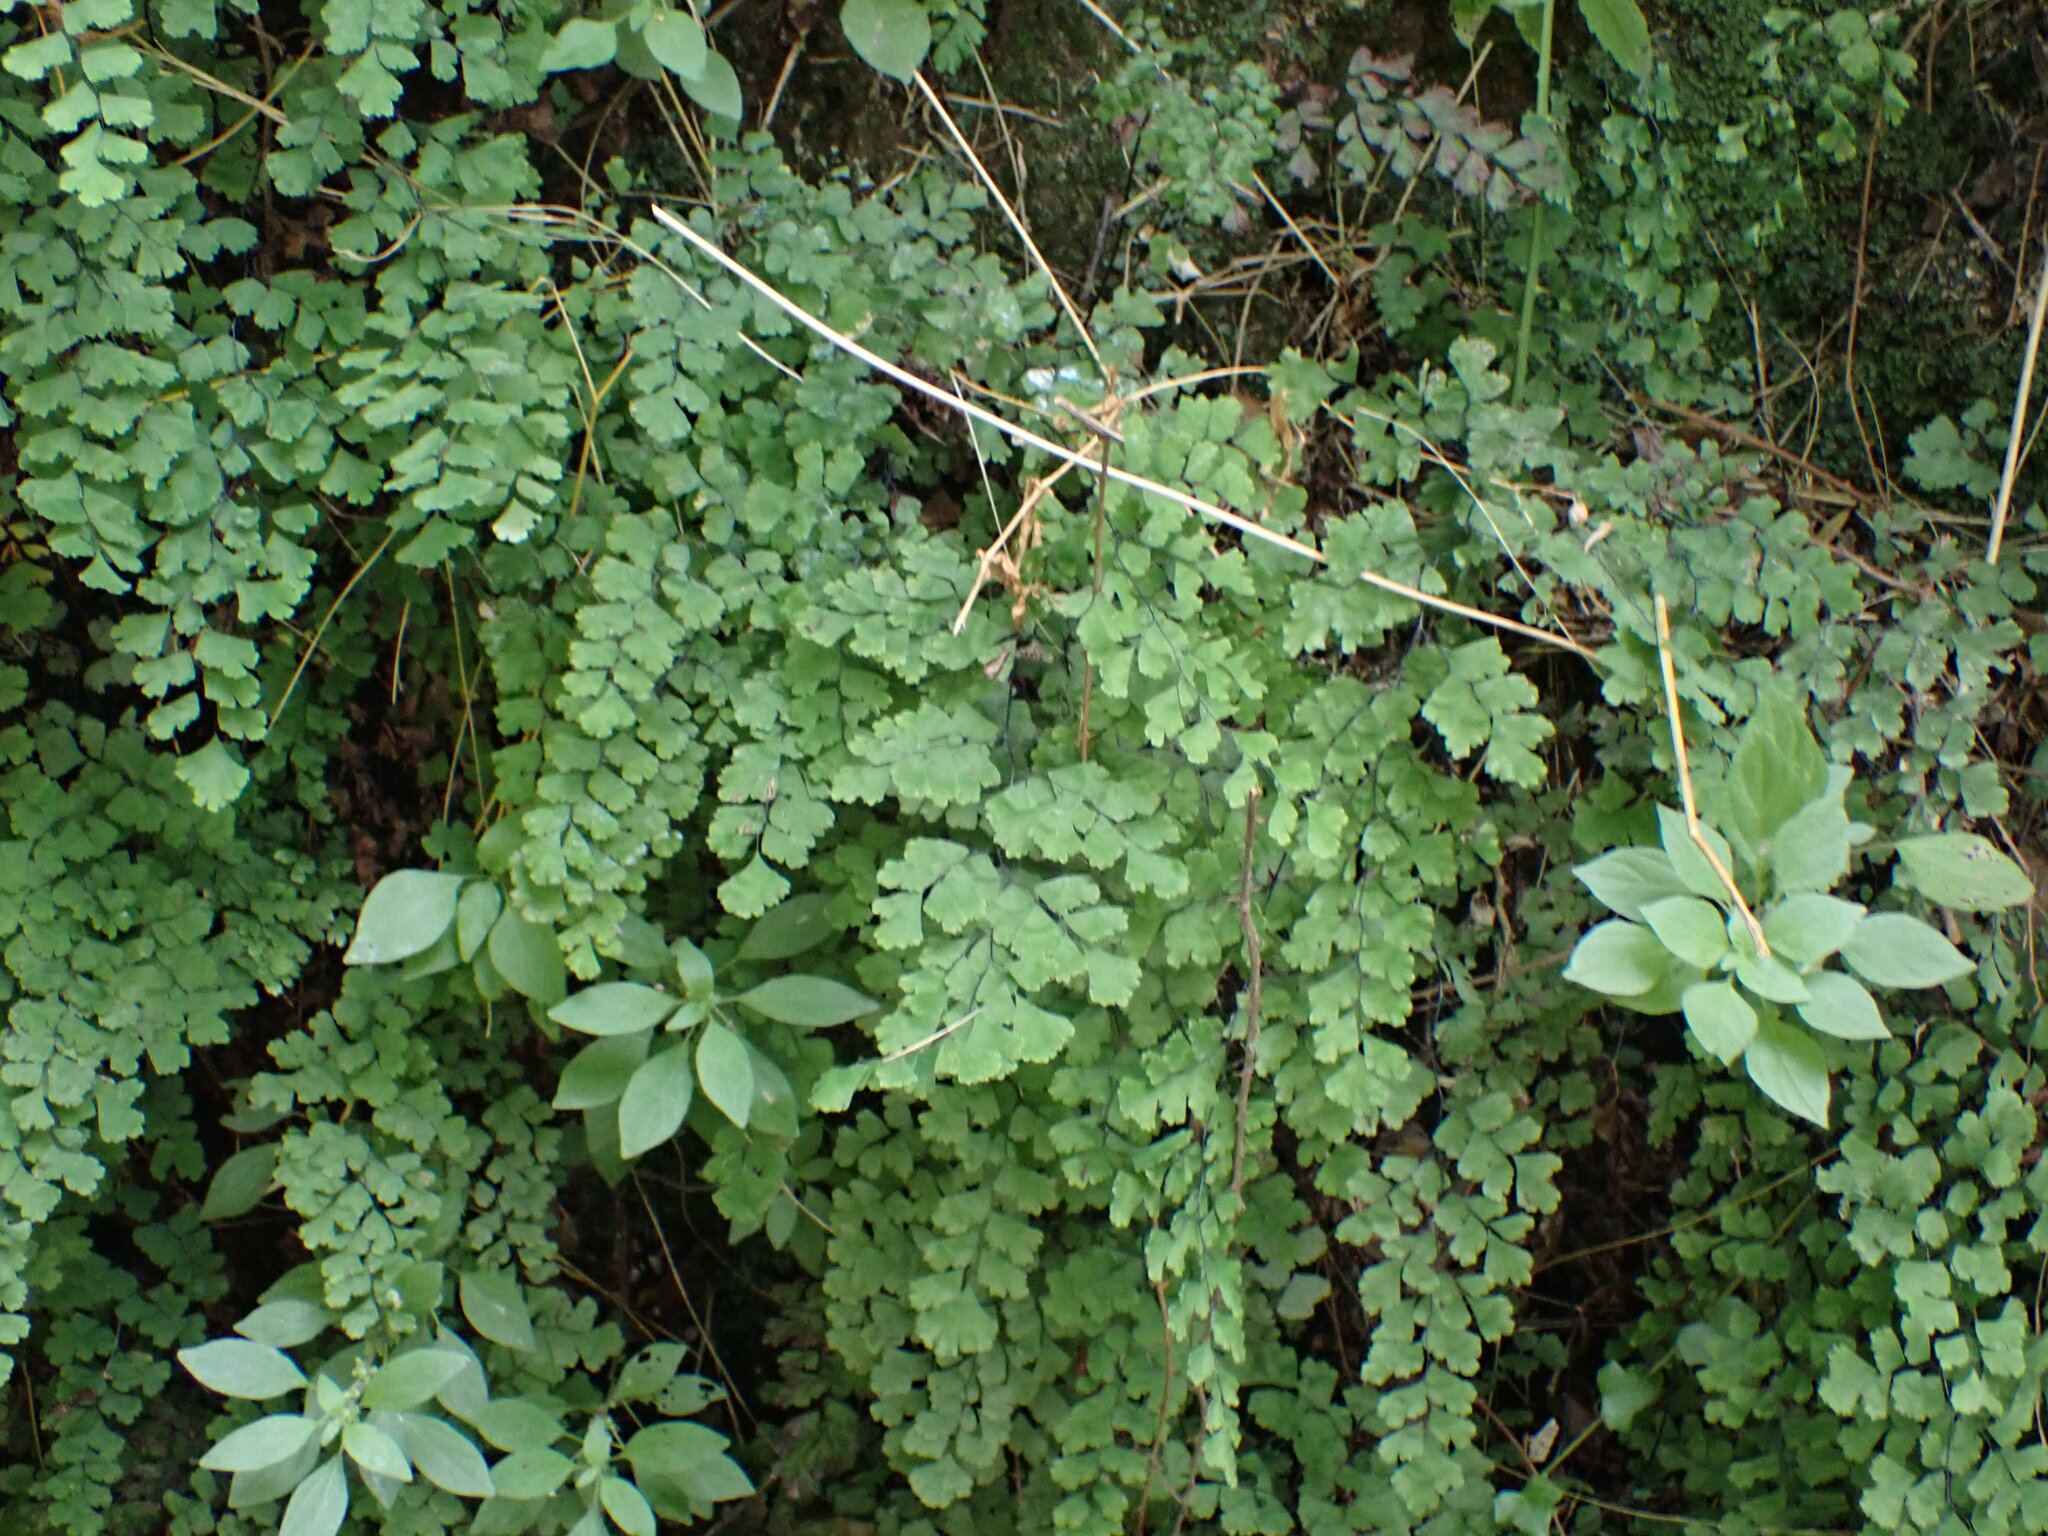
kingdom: Plantae
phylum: Tracheophyta
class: Polypodiopsida
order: Polypodiales
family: Pteridaceae
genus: Adiantum
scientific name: Adiantum capillus-veneris
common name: Maidenhair fern
